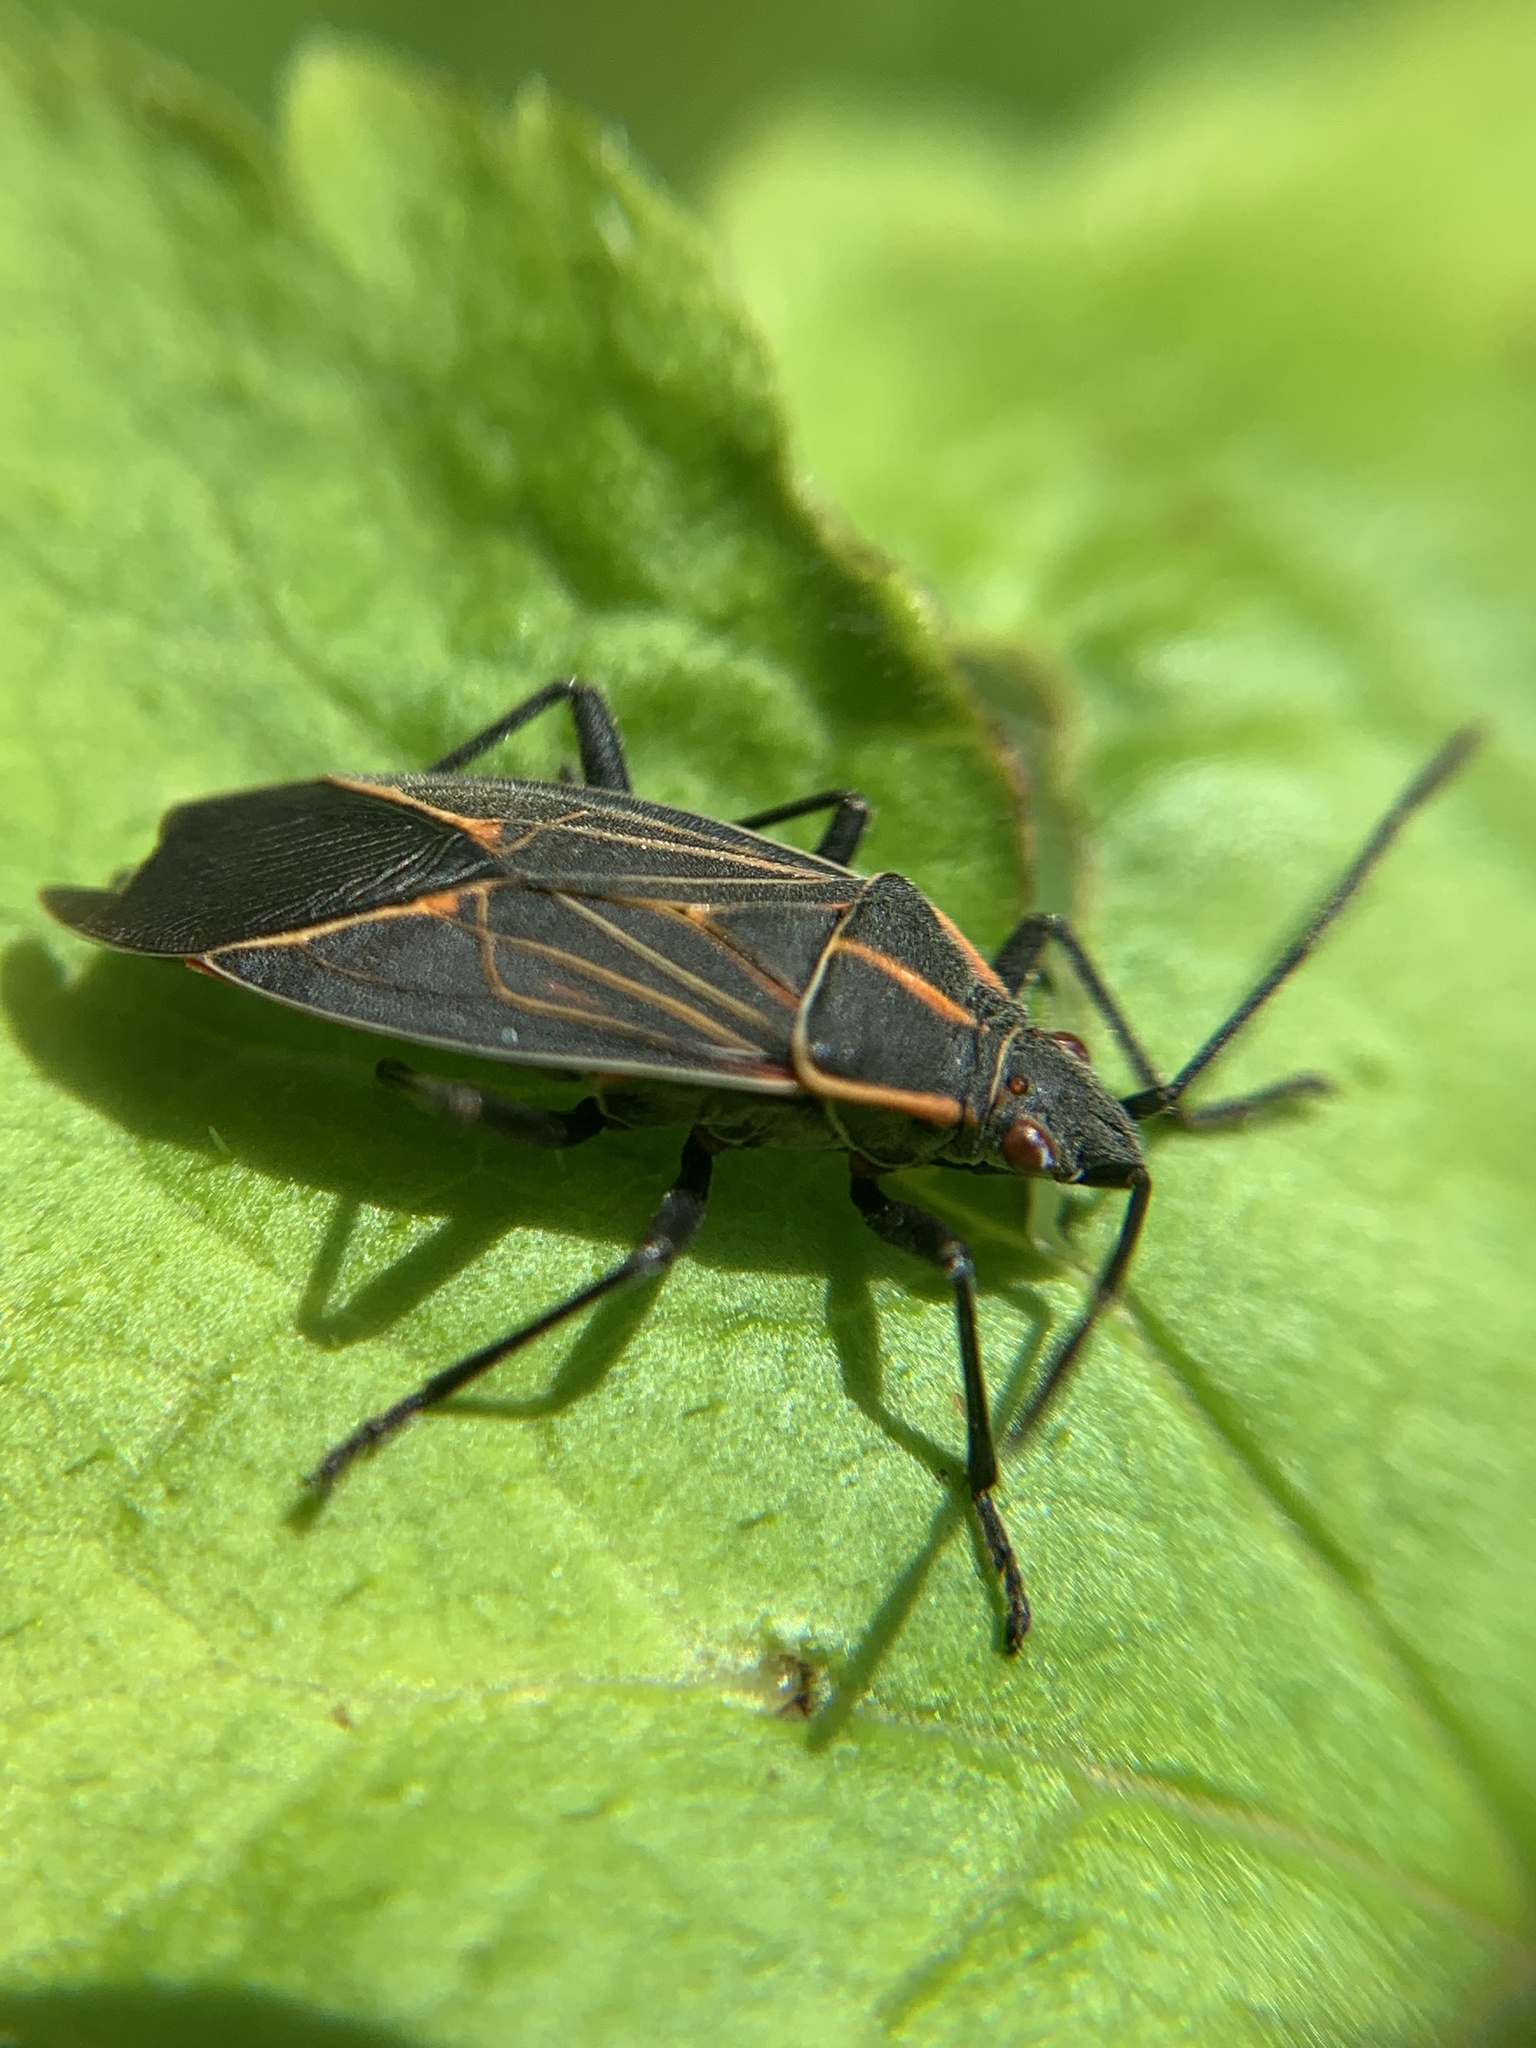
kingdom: Animalia
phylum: Arthropoda
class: Insecta
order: Hemiptera
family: Rhopalidae
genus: Boisea
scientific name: Boisea rubrolineata
